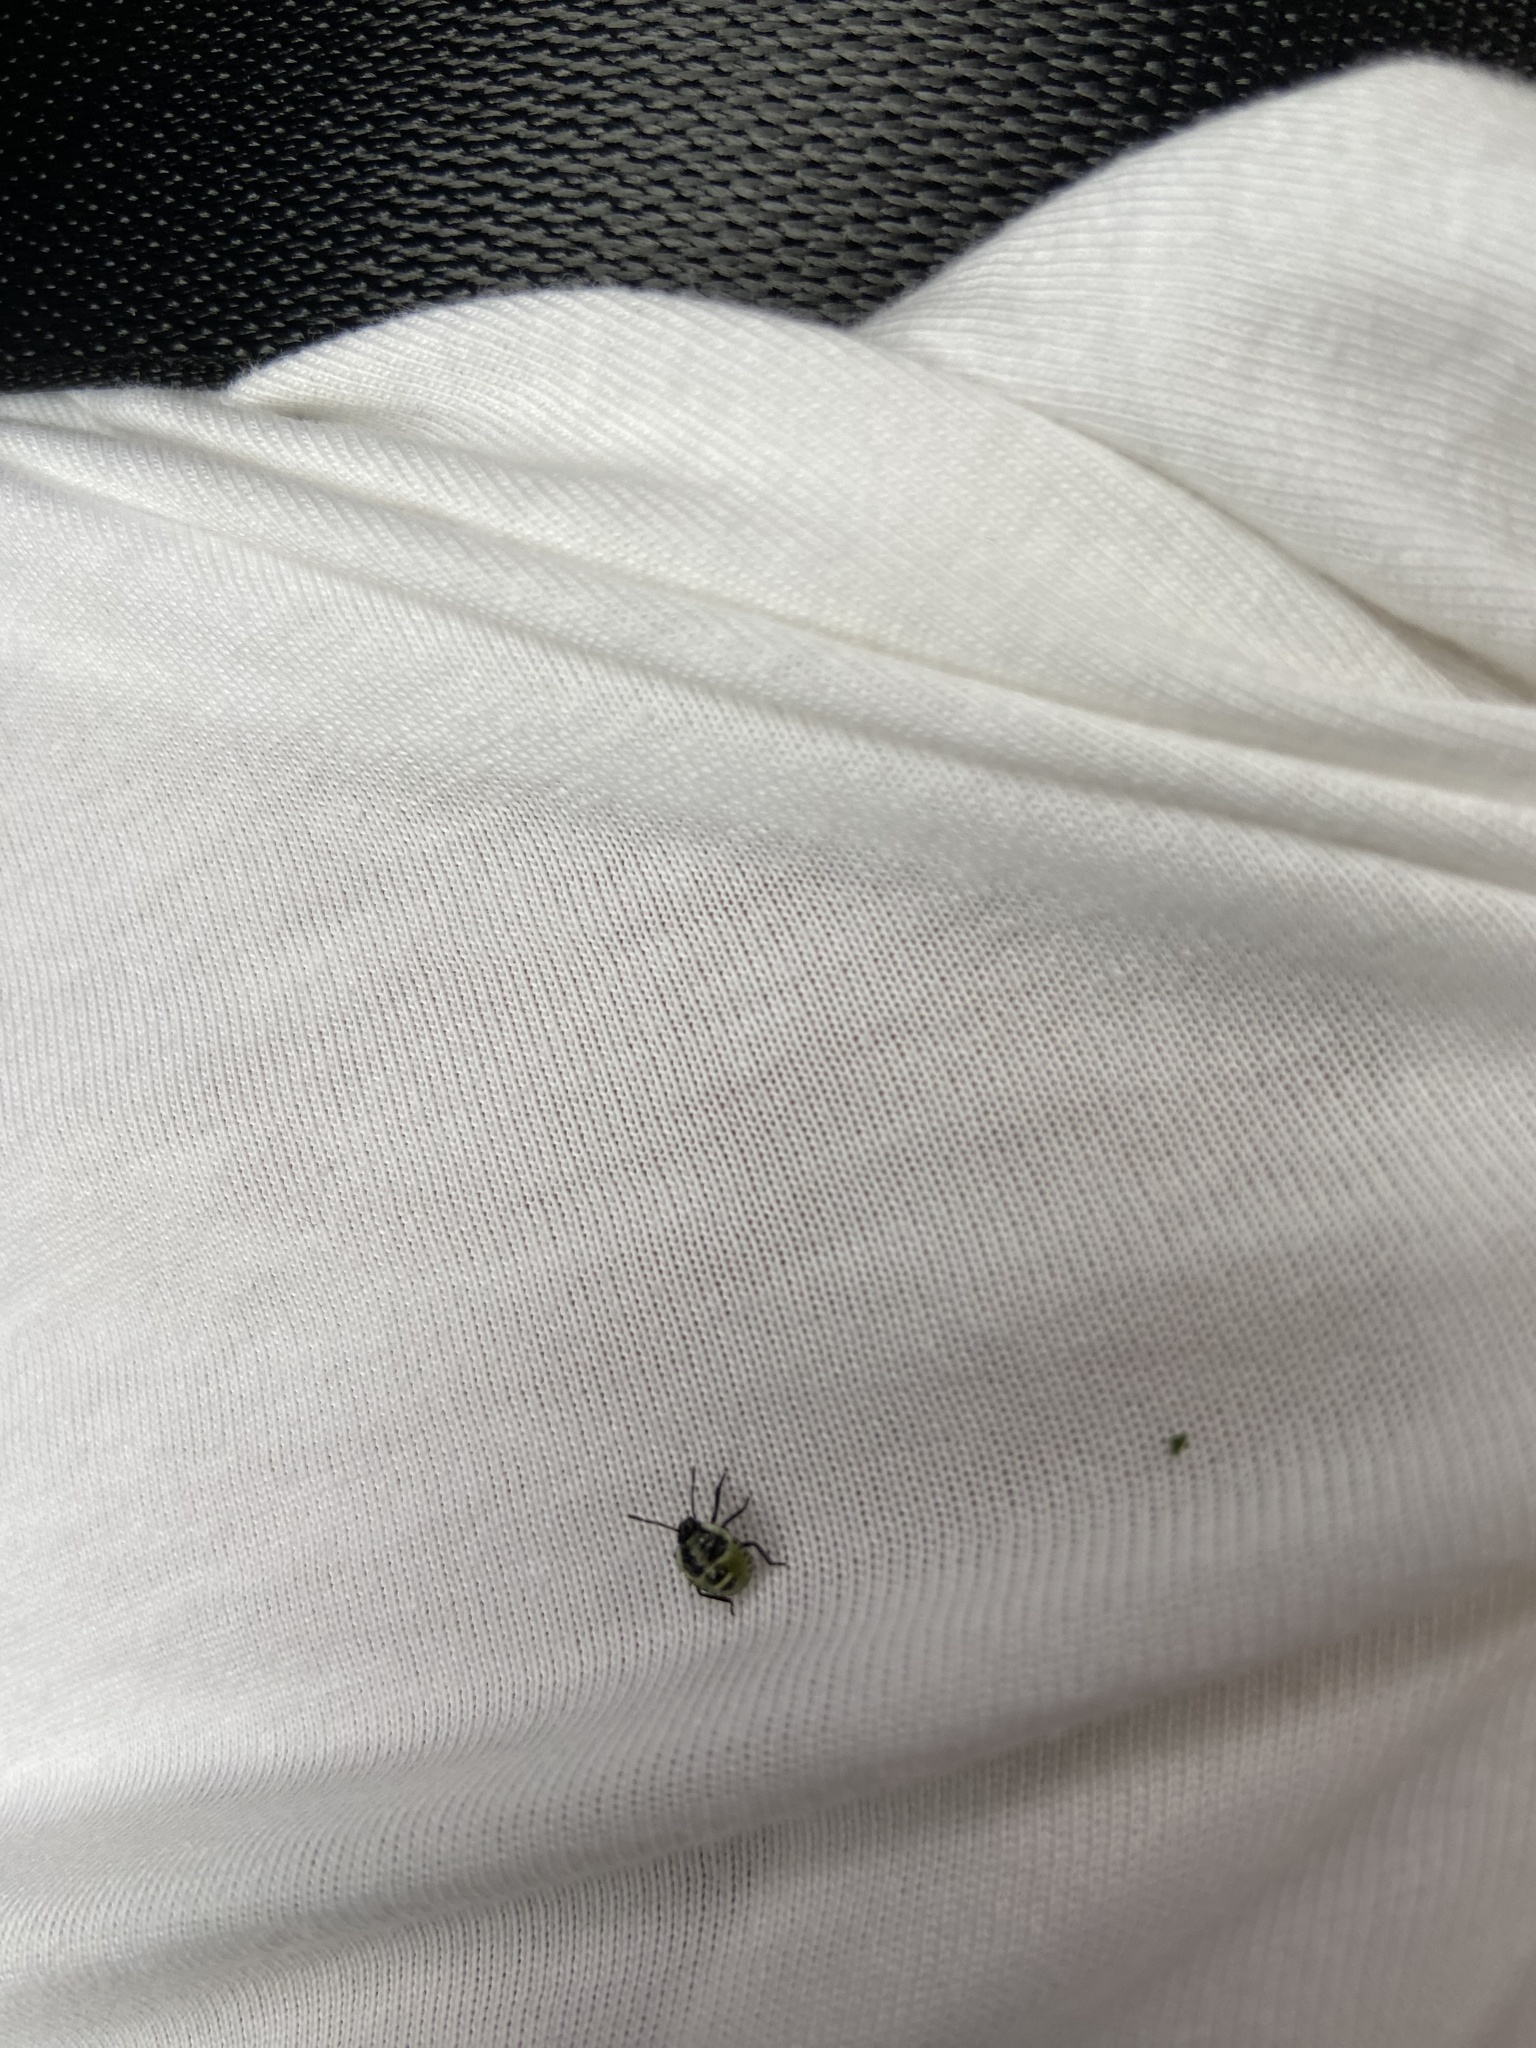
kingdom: Animalia
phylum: Arthropoda
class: Insecta
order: Hemiptera
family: Pentatomidae
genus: Palomena
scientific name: Palomena prasina
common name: Green shieldbug
